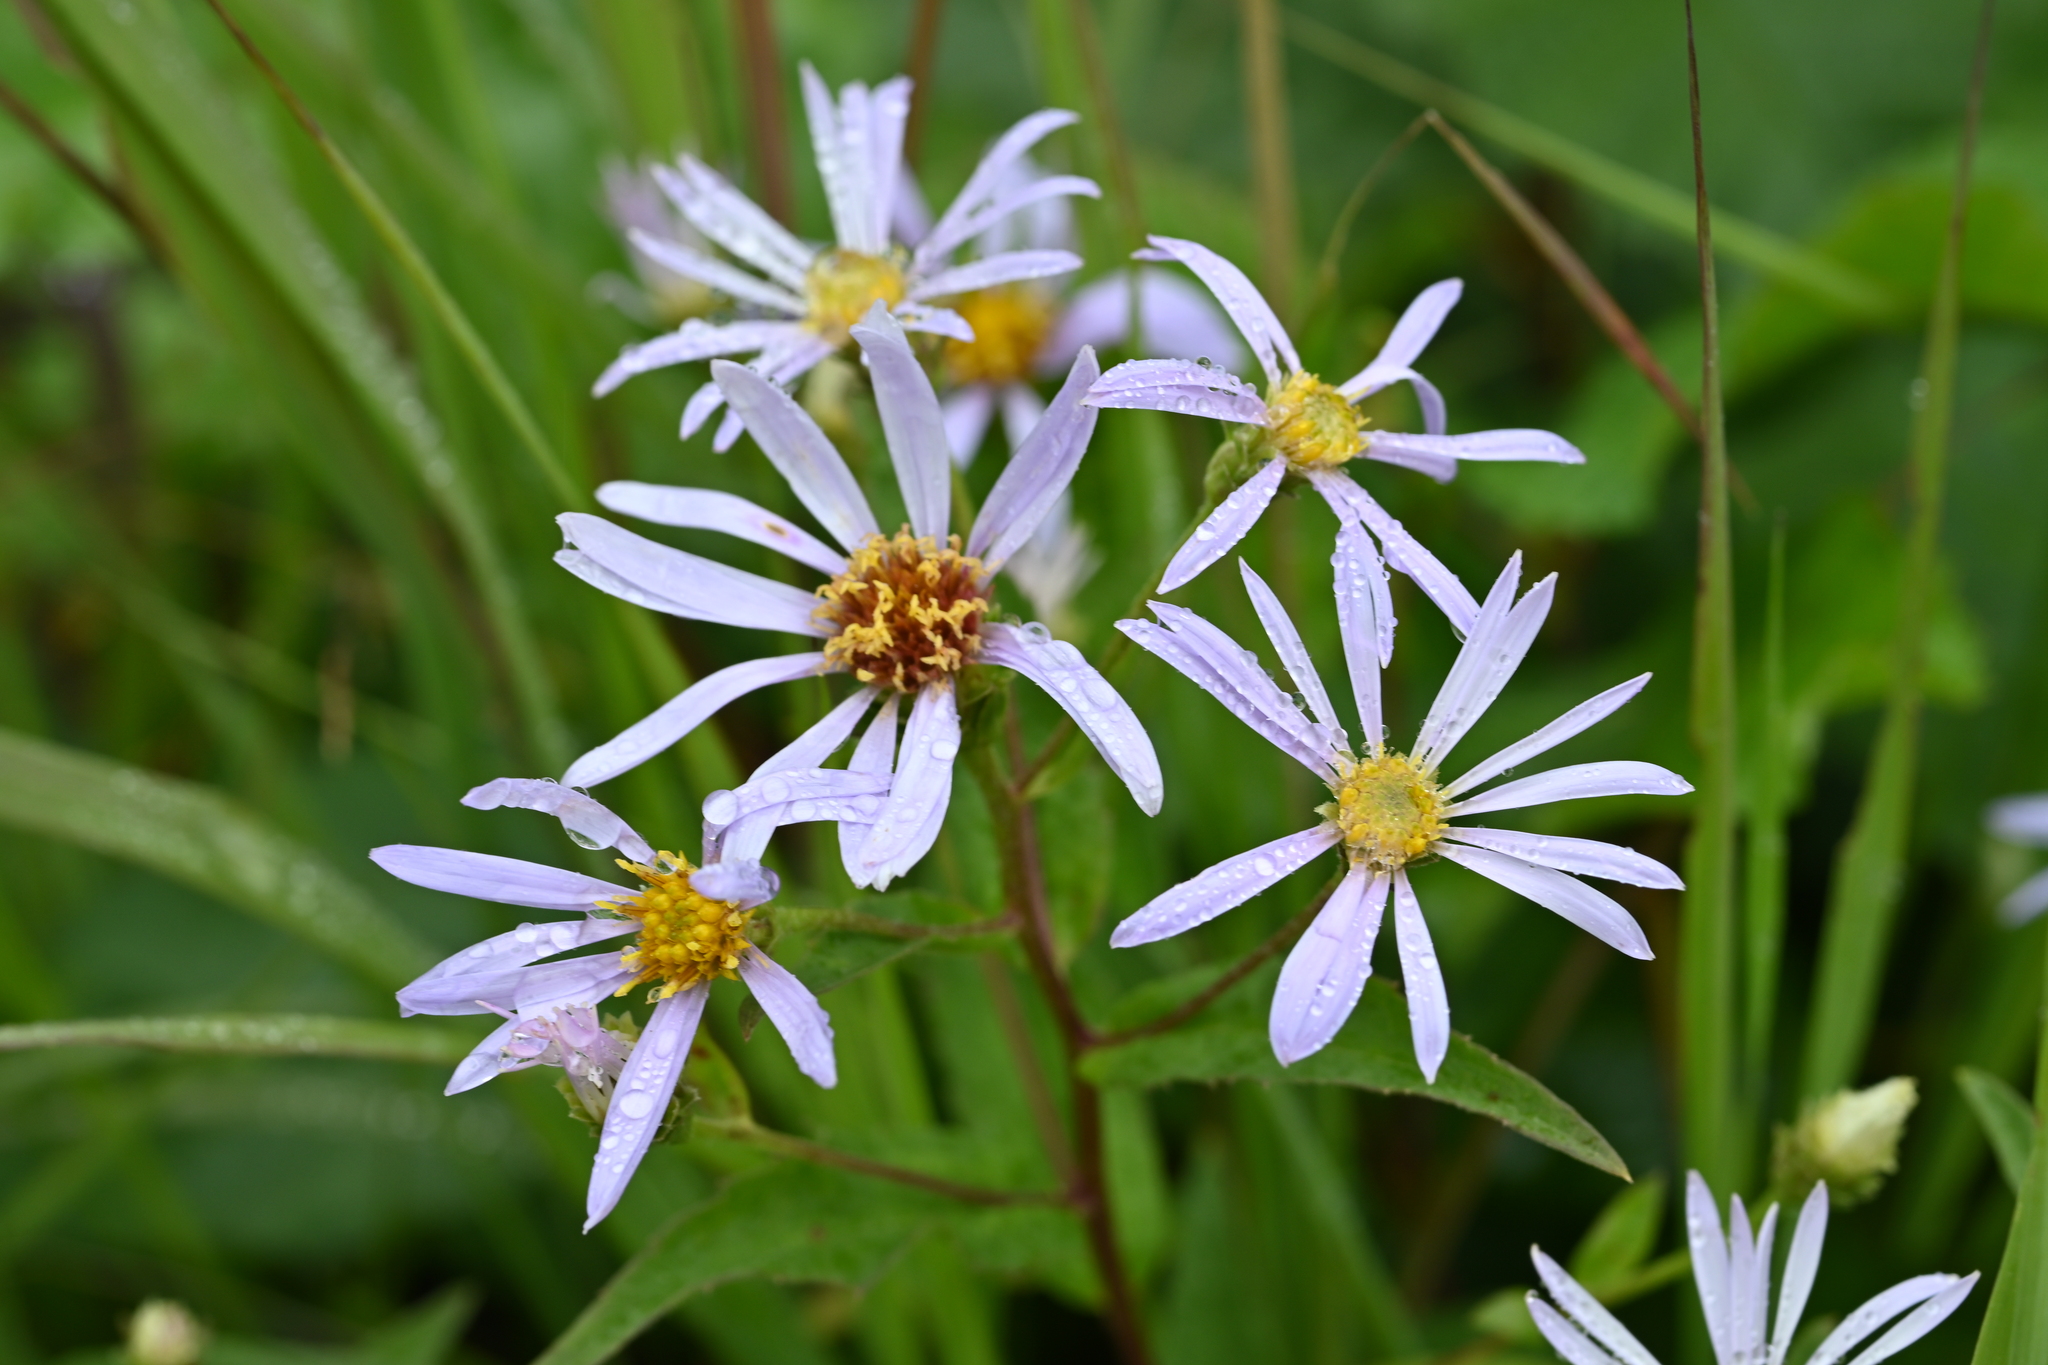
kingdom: Plantae
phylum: Tracheophyta
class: Magnoliopsida
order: Asterales
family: Asteraceae
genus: Eurybia
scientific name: Eurybia radula
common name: Low rough aster
